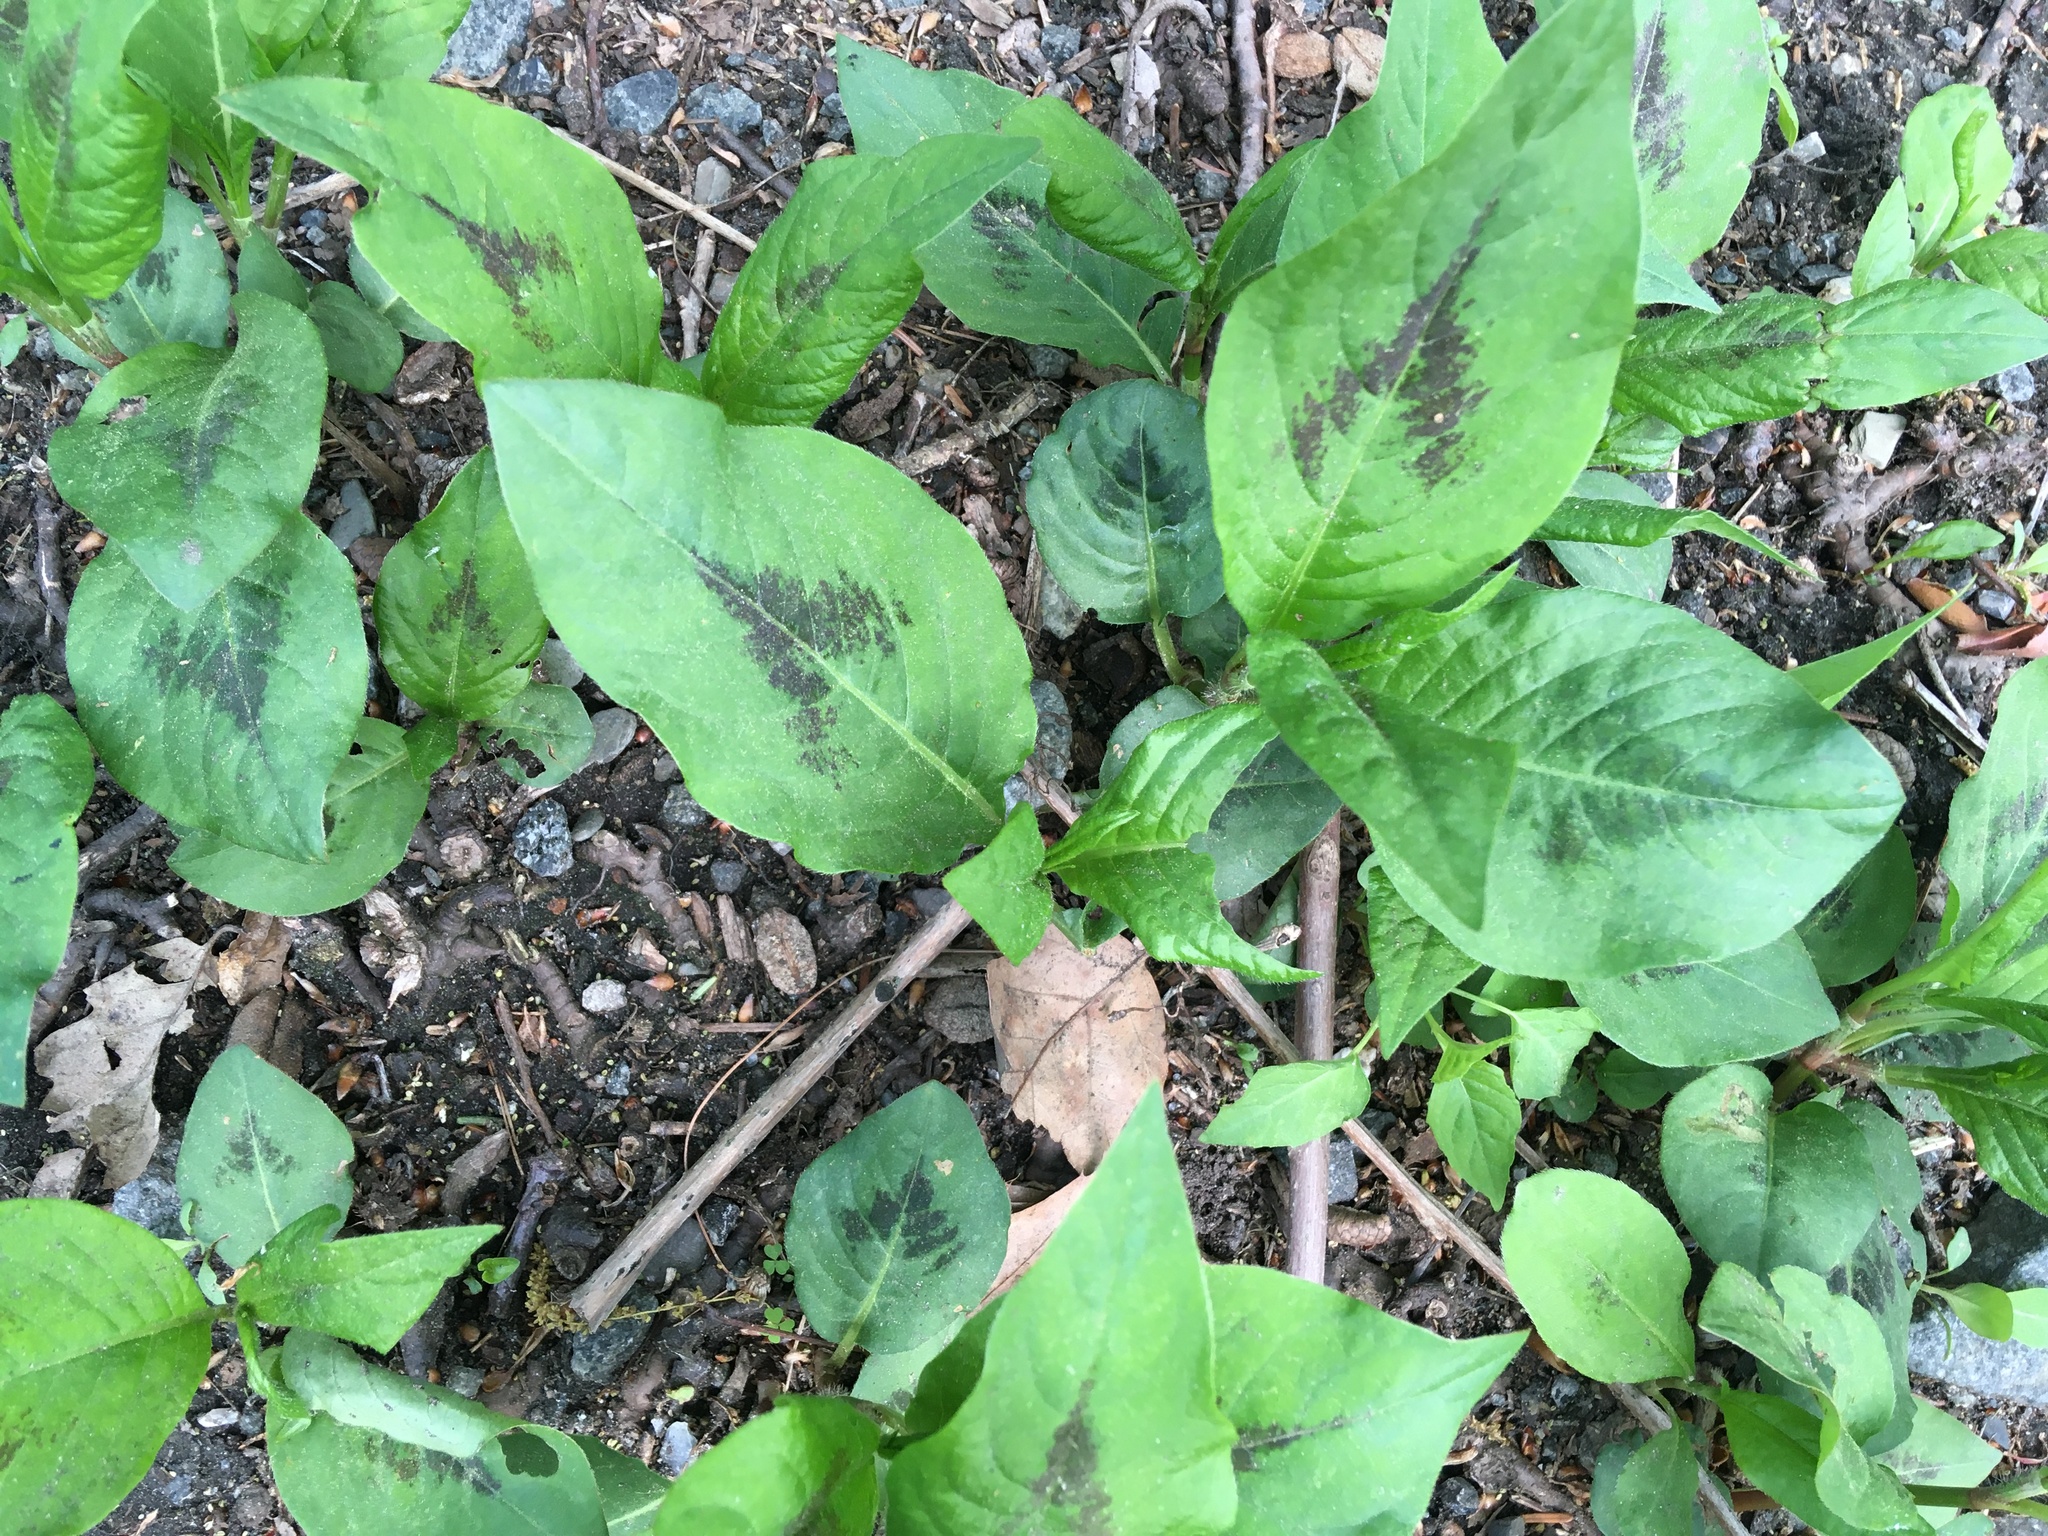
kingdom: Plantae
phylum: Tracheophyta
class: Magnoliopsida
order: Caryophyllales
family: Polygonaceae
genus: Persicaria
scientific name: Persicaria virginiana
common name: Jumpseed
